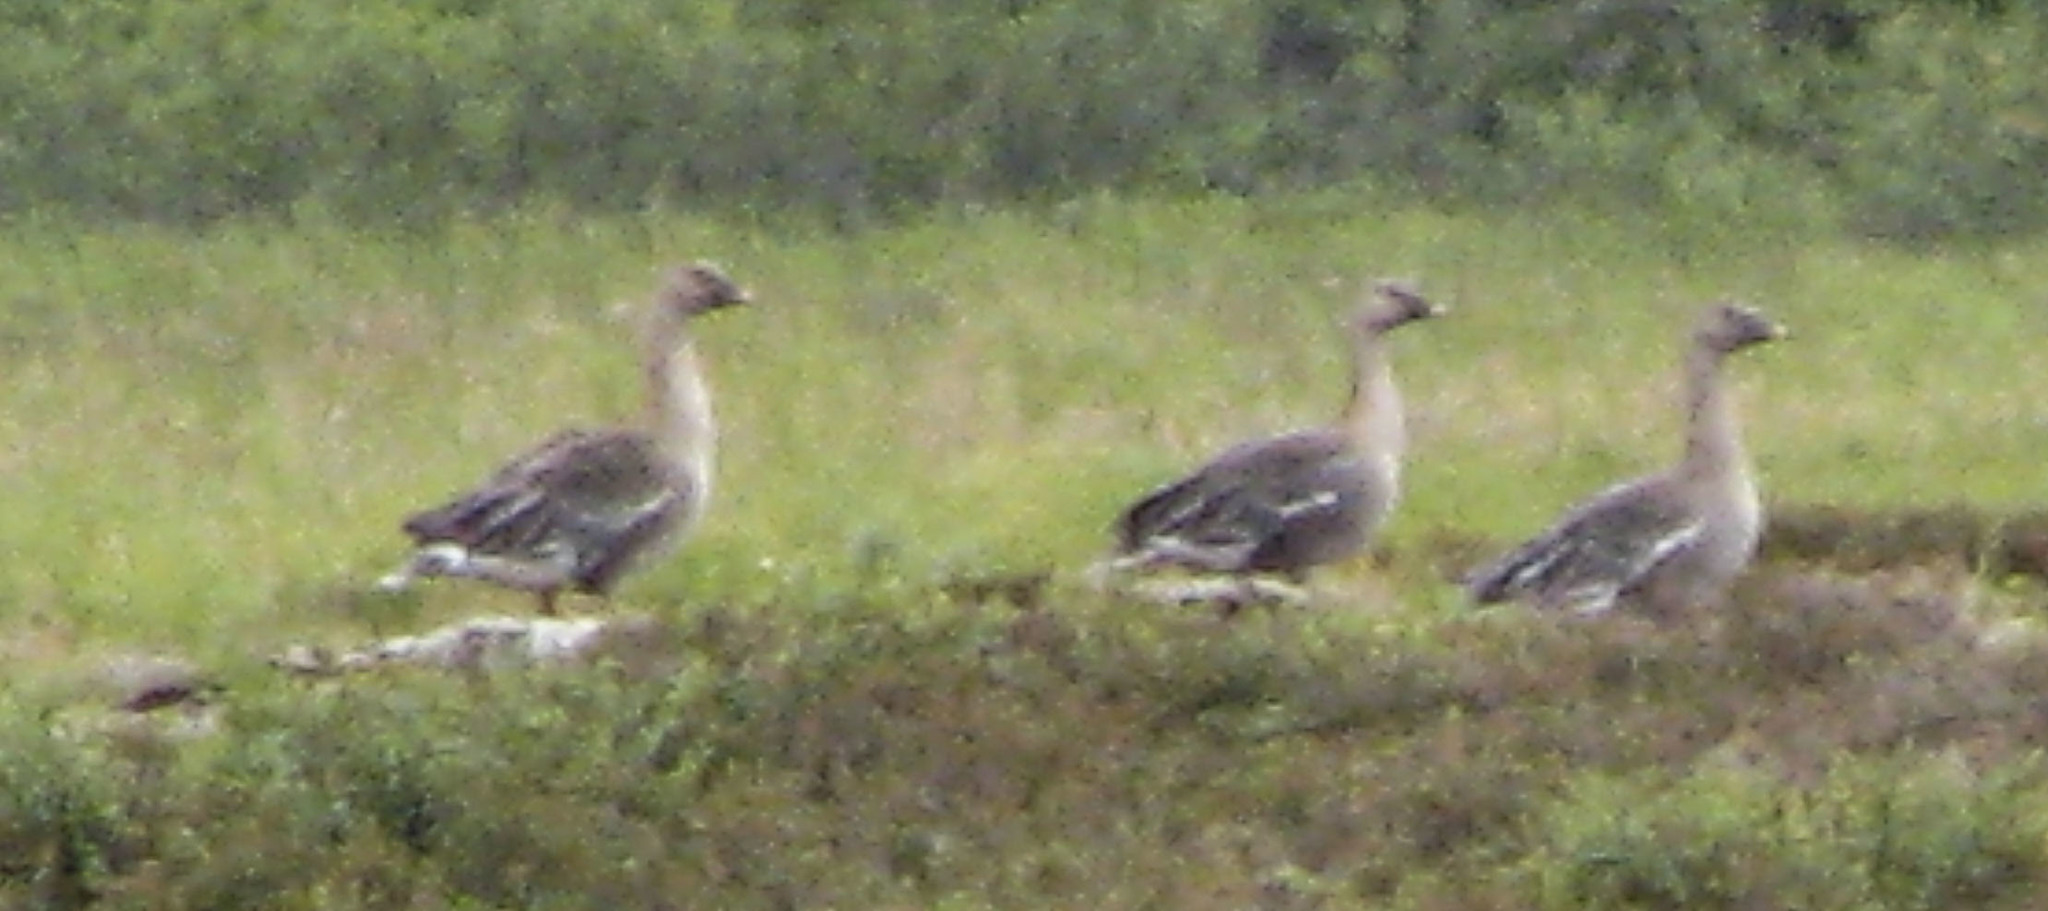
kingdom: Animalia
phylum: Chordata
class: Aves
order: Anseriformes
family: Anatidae
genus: Anser
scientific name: Anser fabalis
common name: Bean goose
